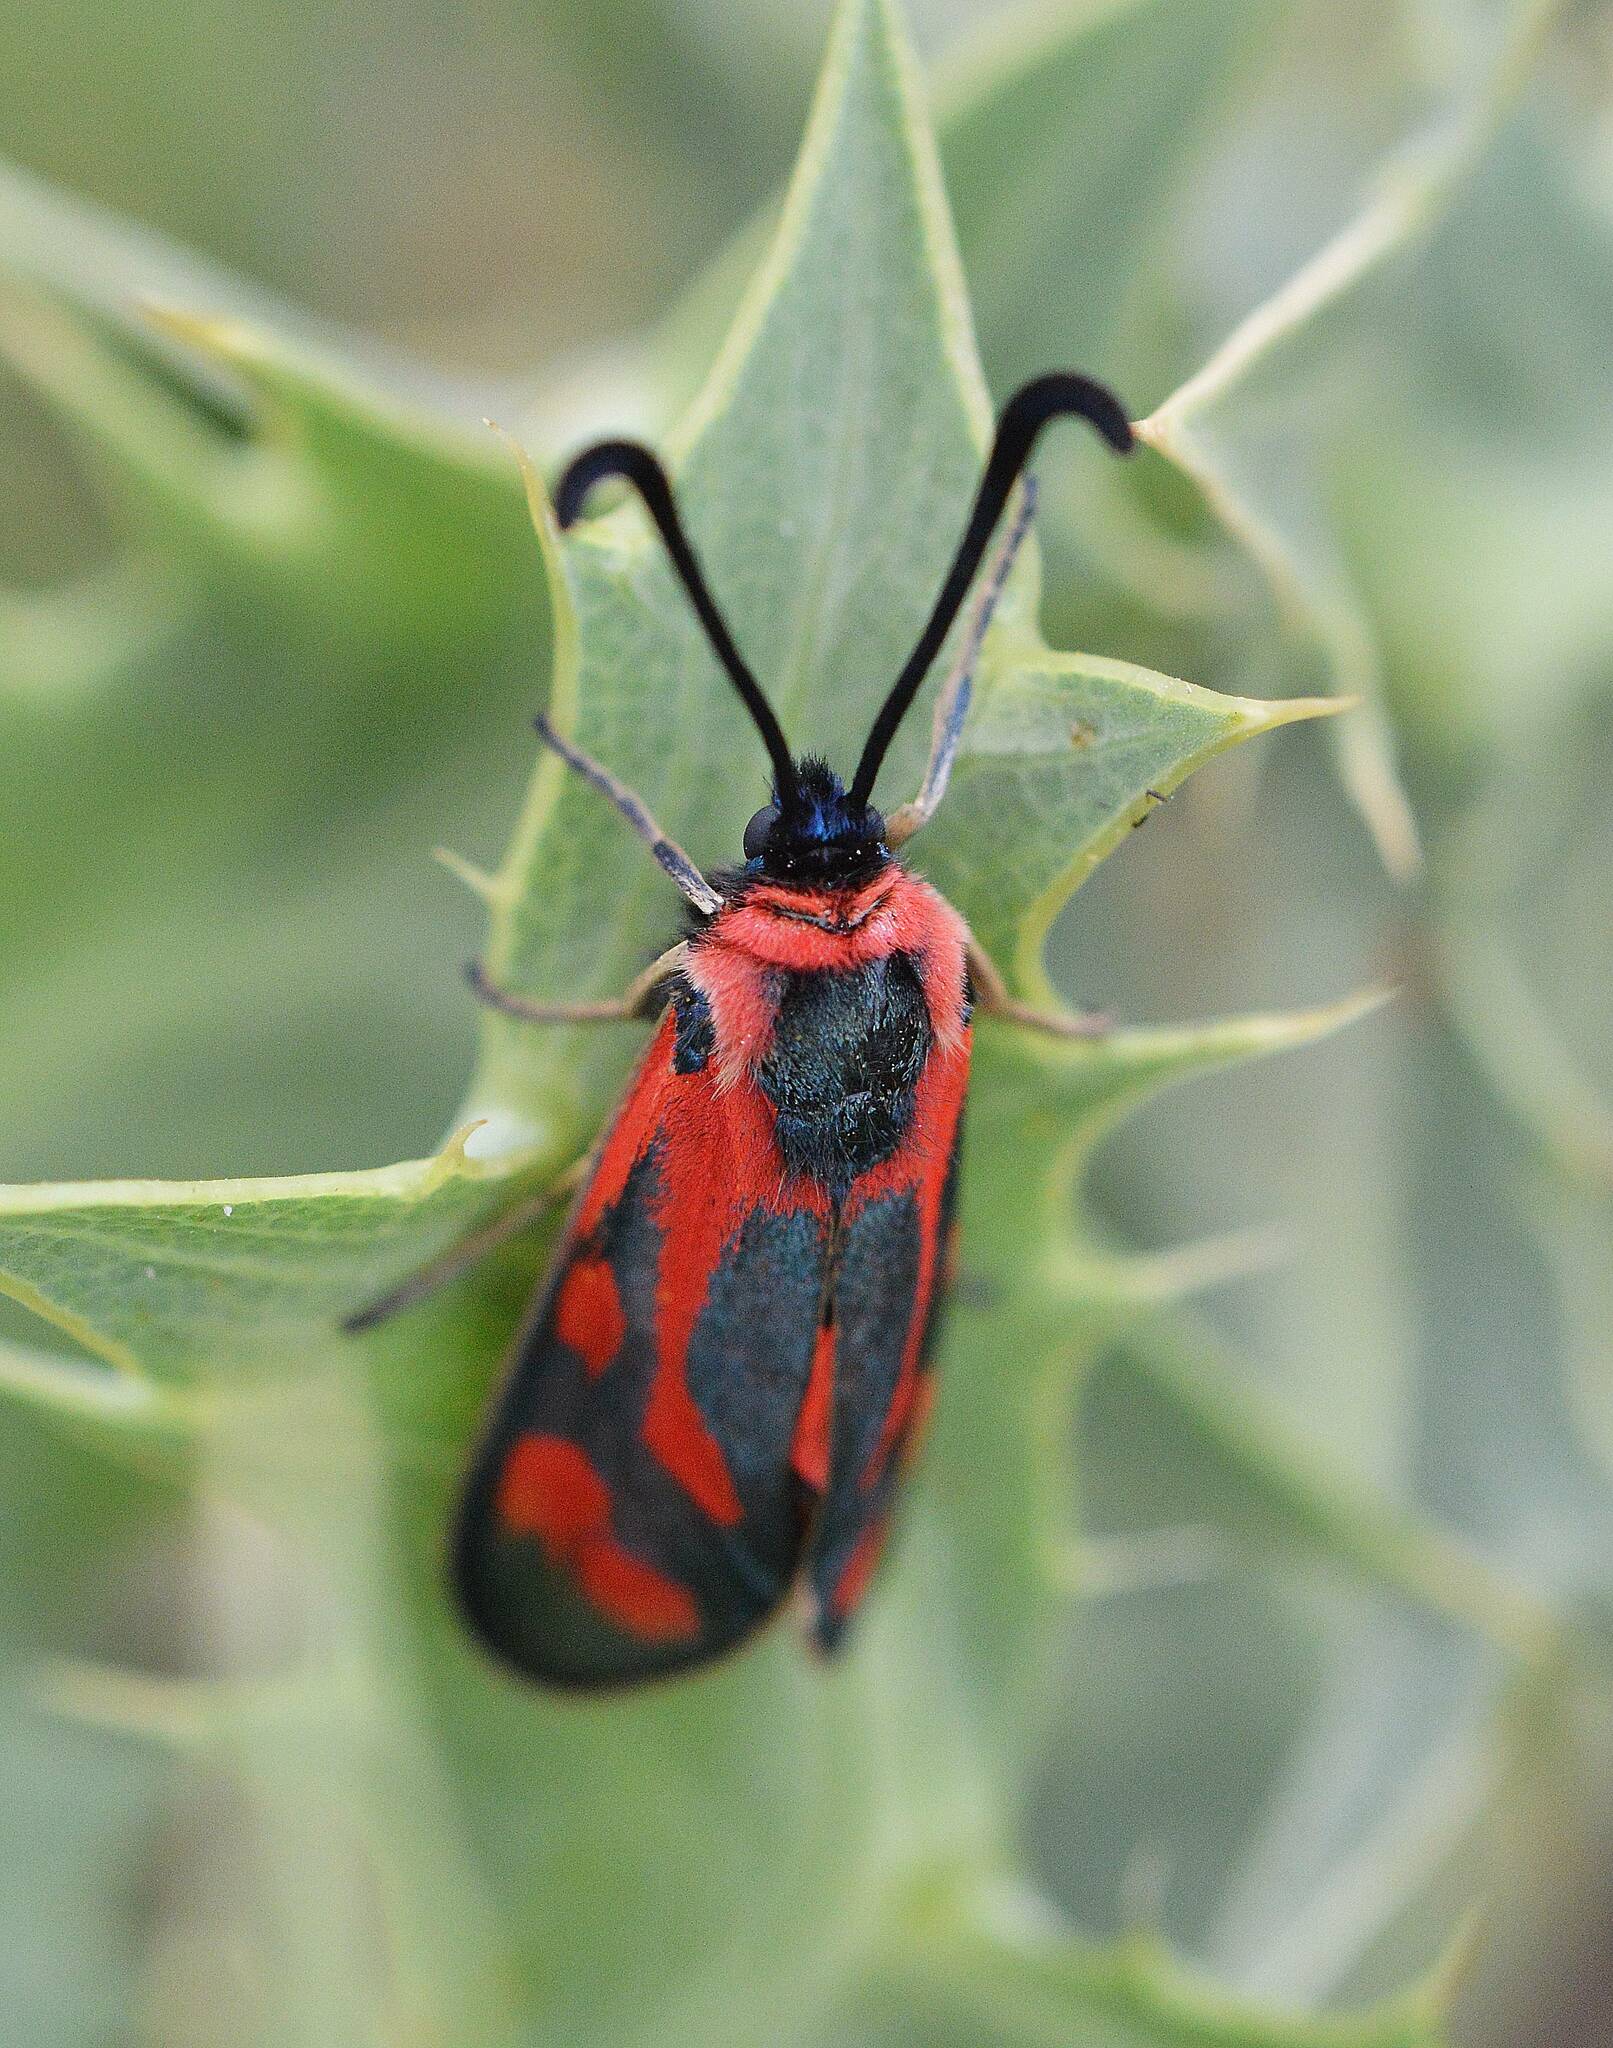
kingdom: Animalia
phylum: Arthropoda
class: Insecta
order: Lepidoptera
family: Zygaenidae
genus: Zygaena
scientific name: Zygaena loyselis
